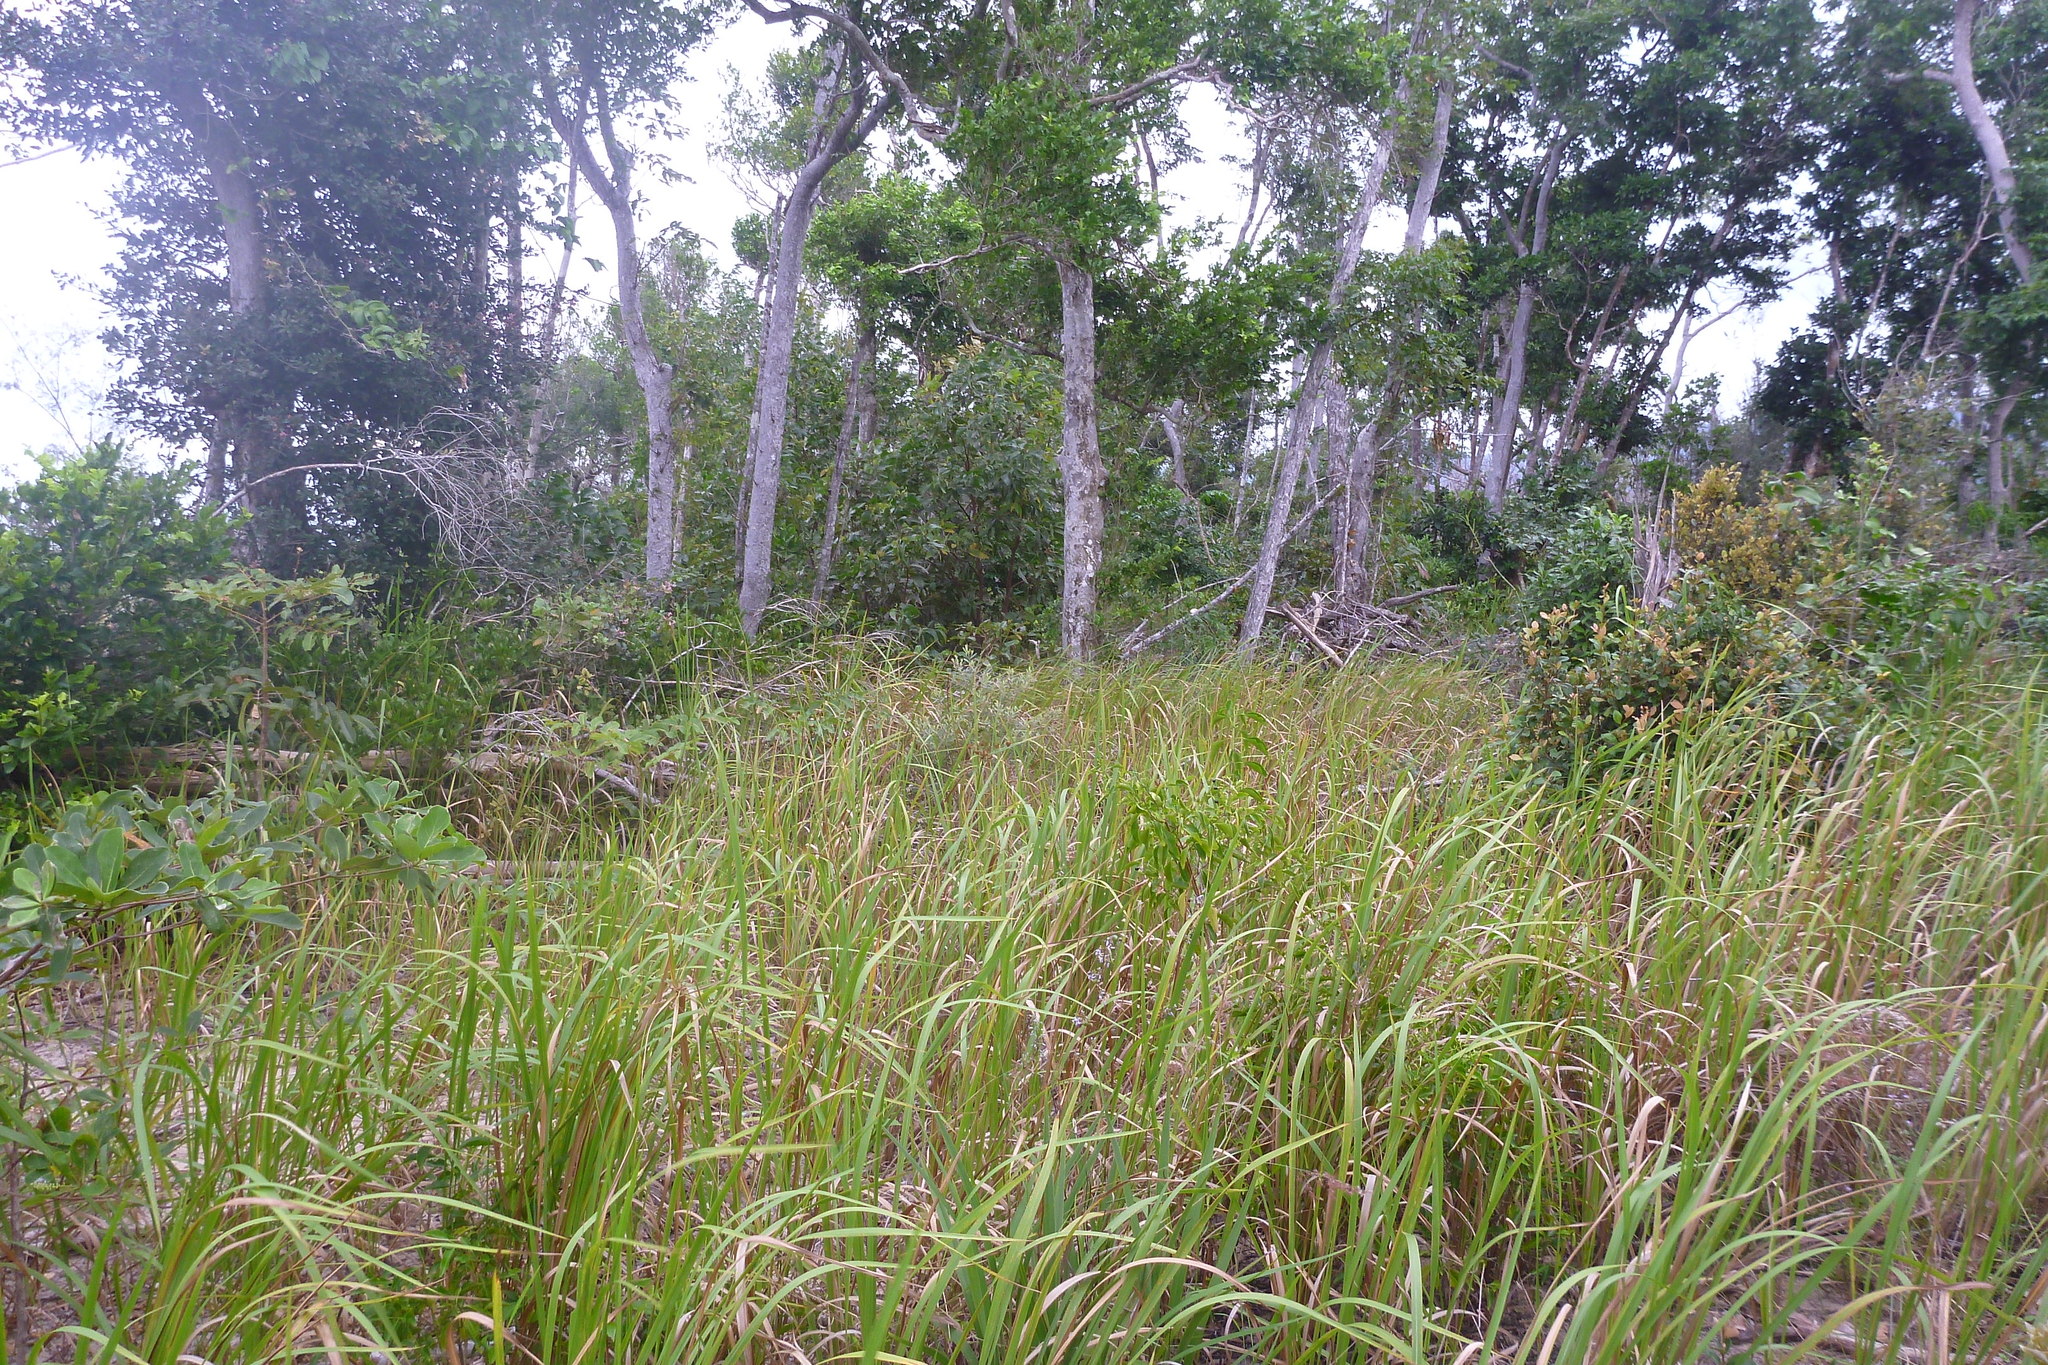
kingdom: Plantae
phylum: Tracheophyta
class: Liliopsida
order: Poales
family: Poaceae
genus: Imperata
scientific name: Imperata cylindrica
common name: Cogongrass
